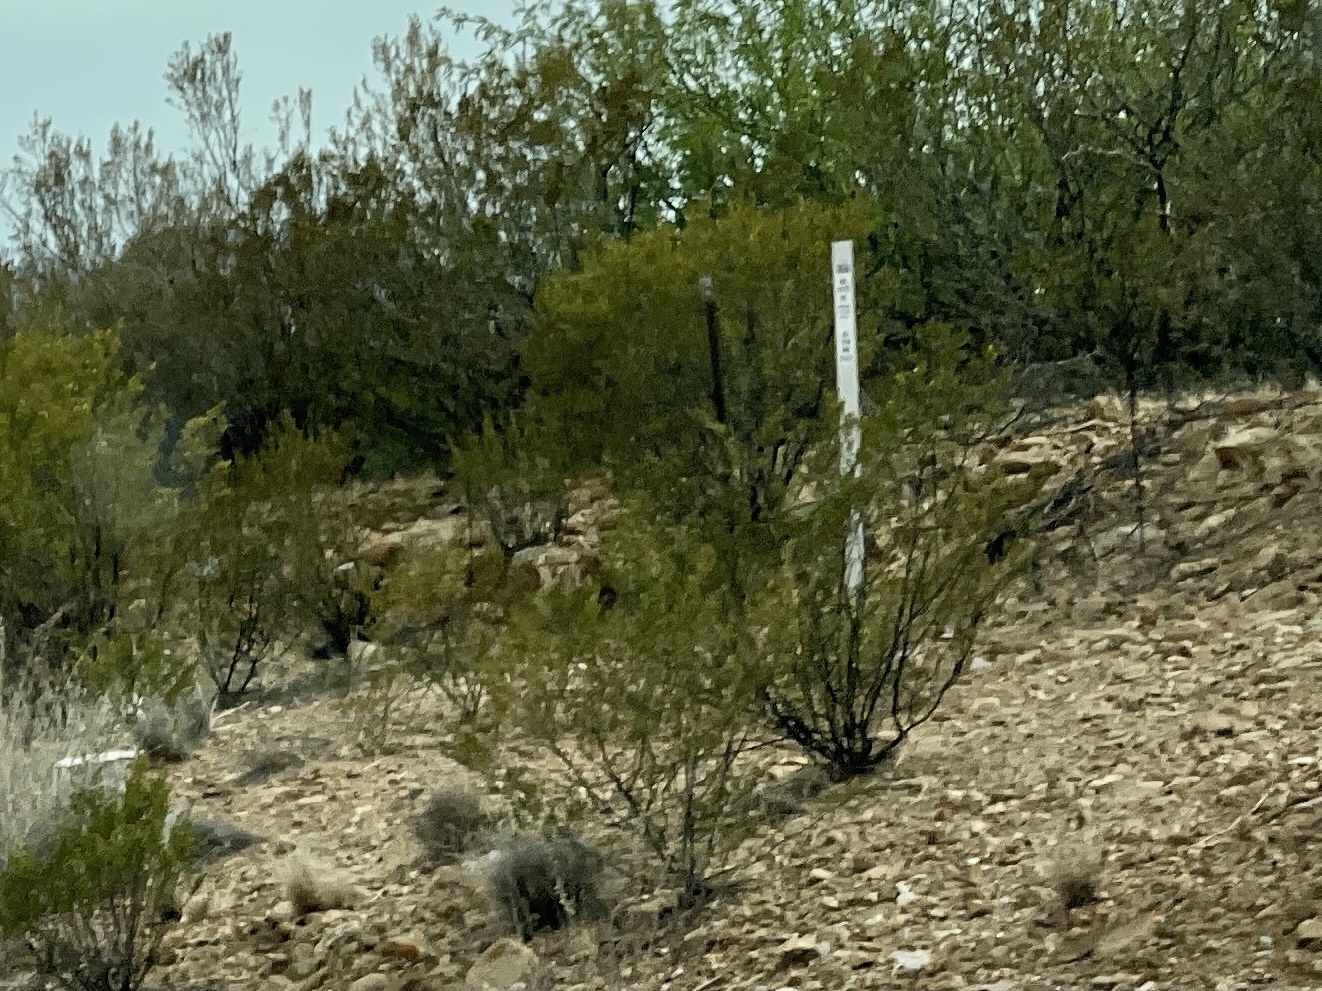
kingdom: Plantae
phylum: Tracheophyta
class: Magnoliopsida
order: Zygophyllales
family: Zygophyllaceae
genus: Larrea
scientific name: Larrea tridentata
